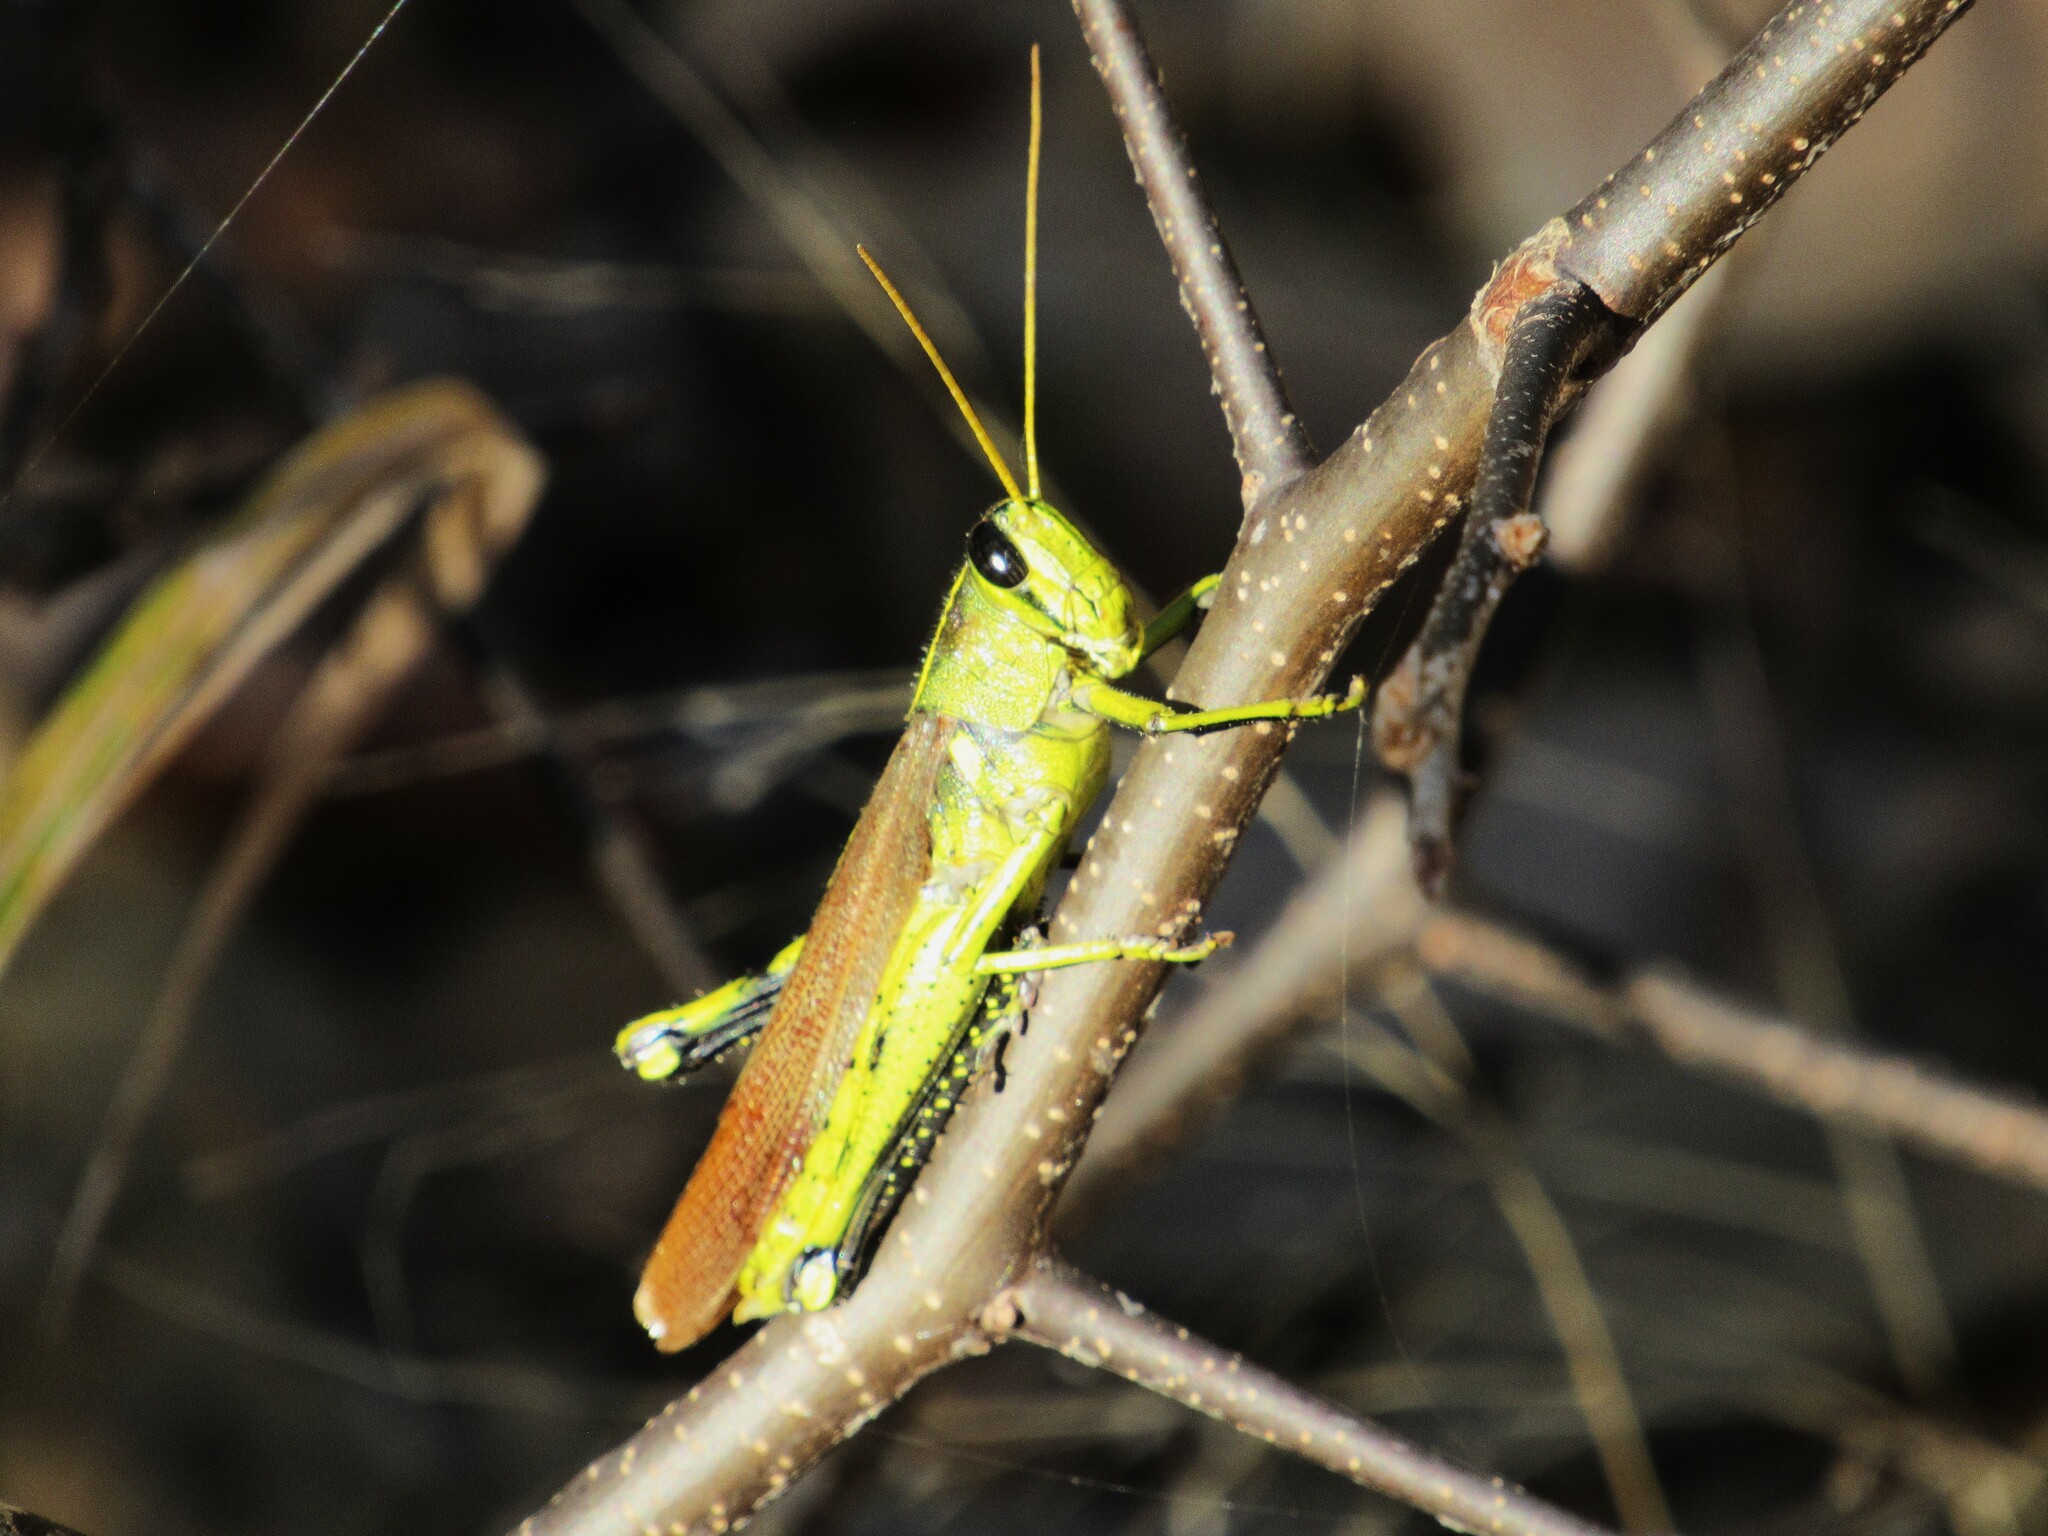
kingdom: Animalia
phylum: Arthropoda
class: Insecta
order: Orthoptera
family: Acrididae
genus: Schistocerca
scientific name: Schistocerca obscura
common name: Obscure bird grasshopper
